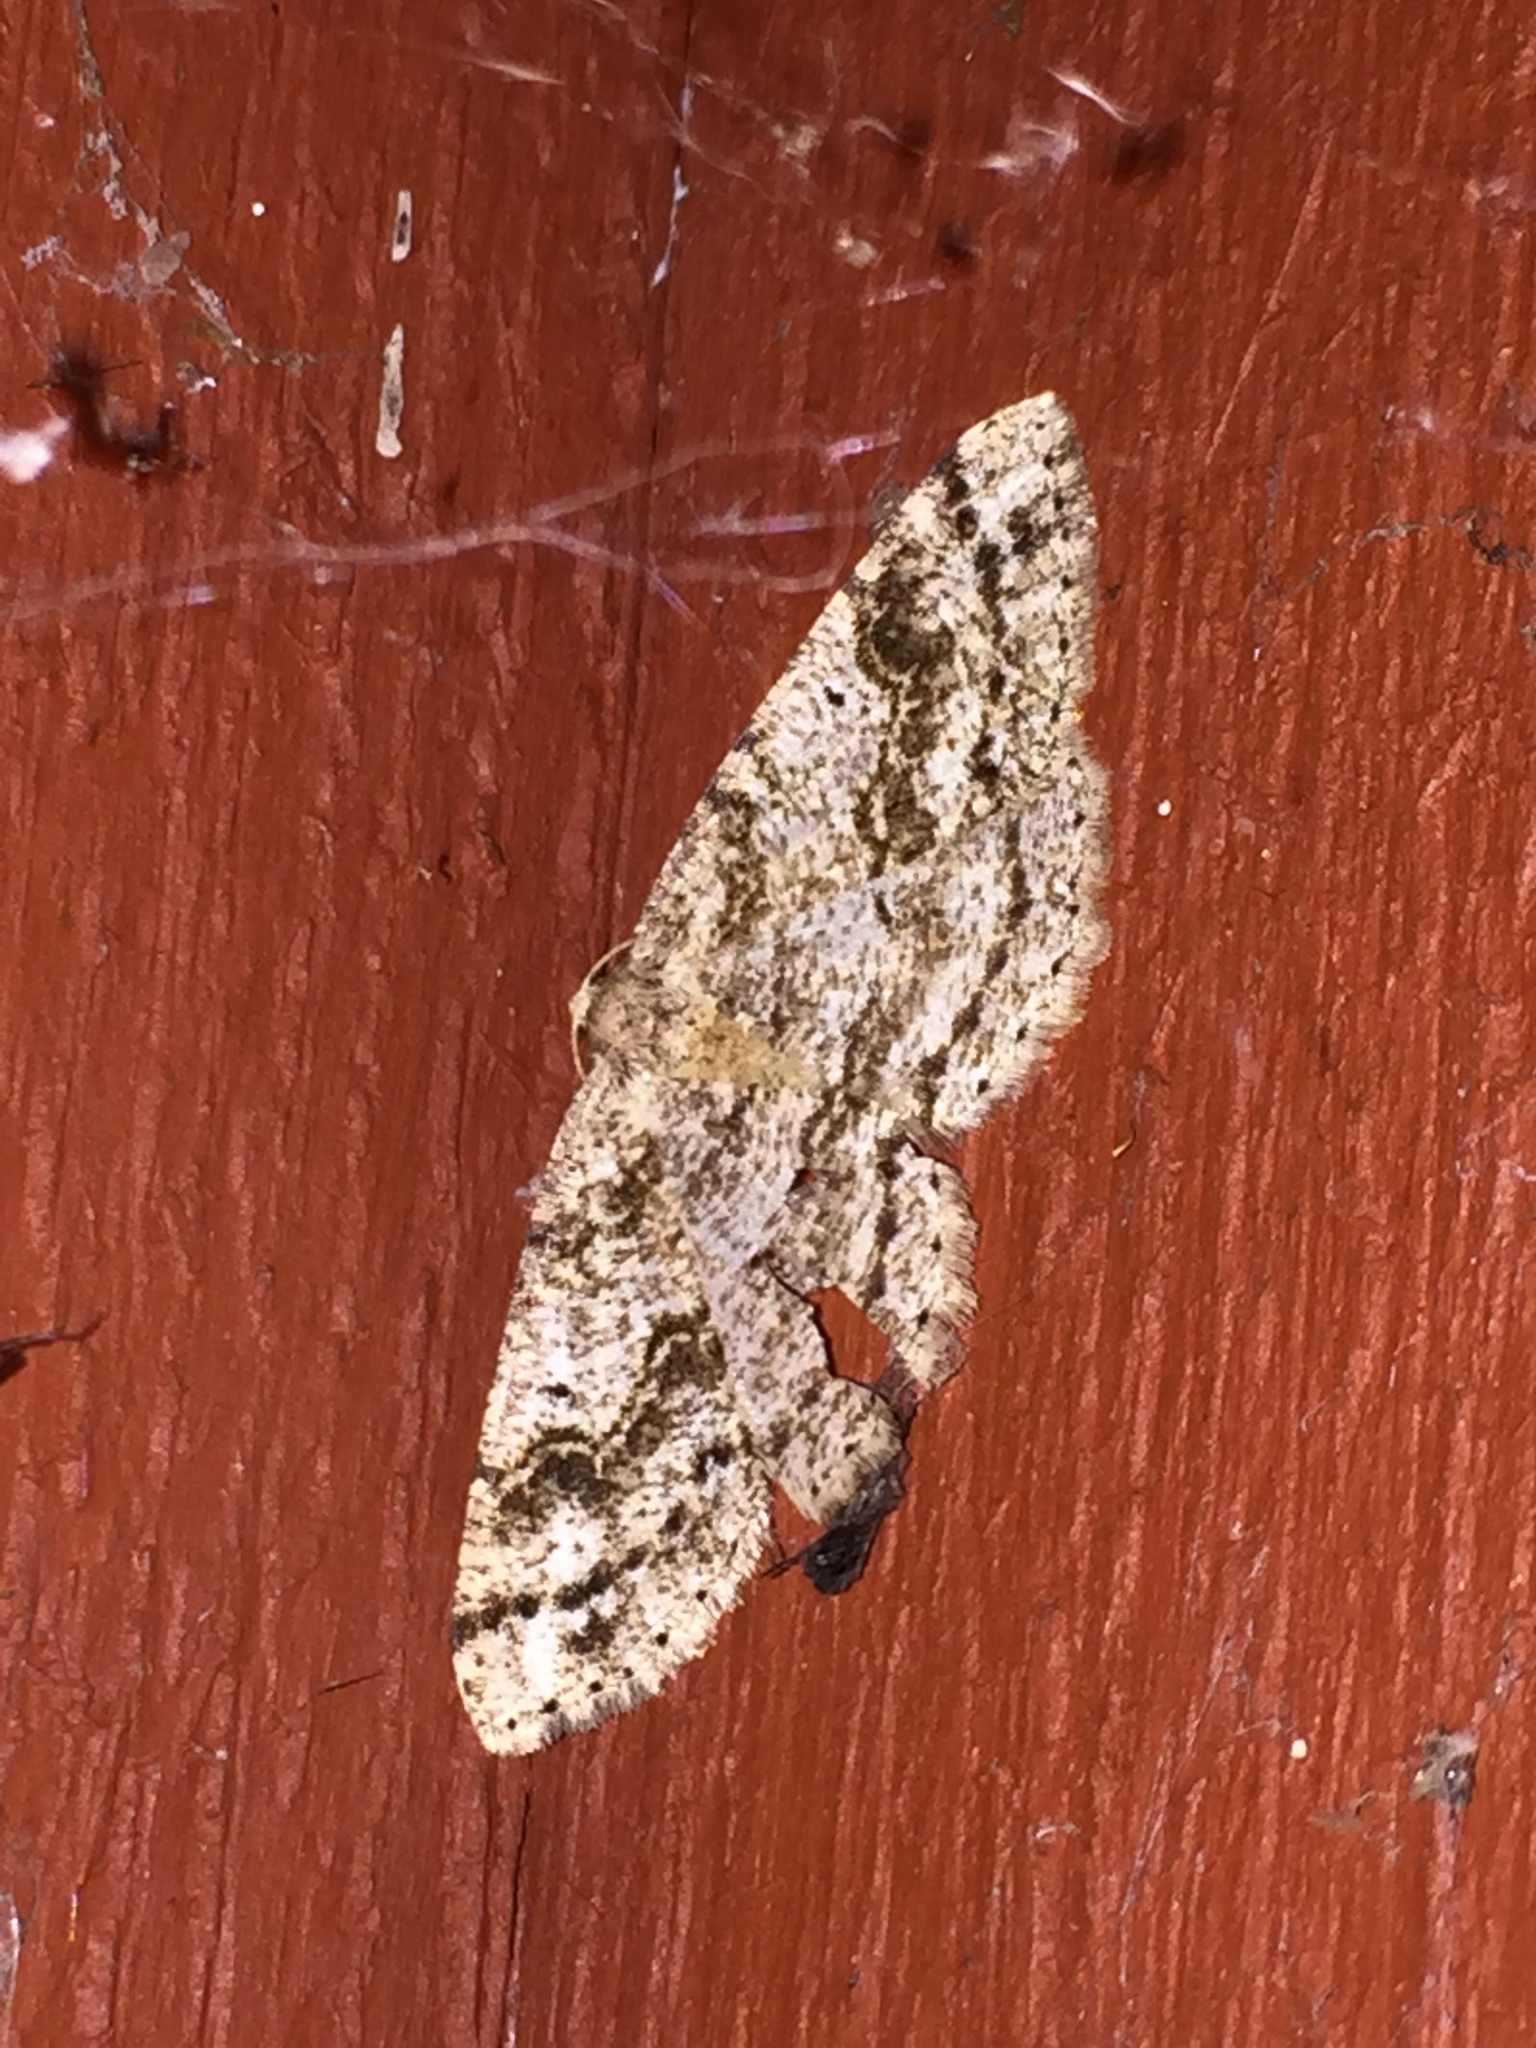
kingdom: Animalia
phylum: Arthropoda
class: Insecta
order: Lepidoptera
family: Geometridae
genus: Melanolophia
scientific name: Melanolophia imitata
